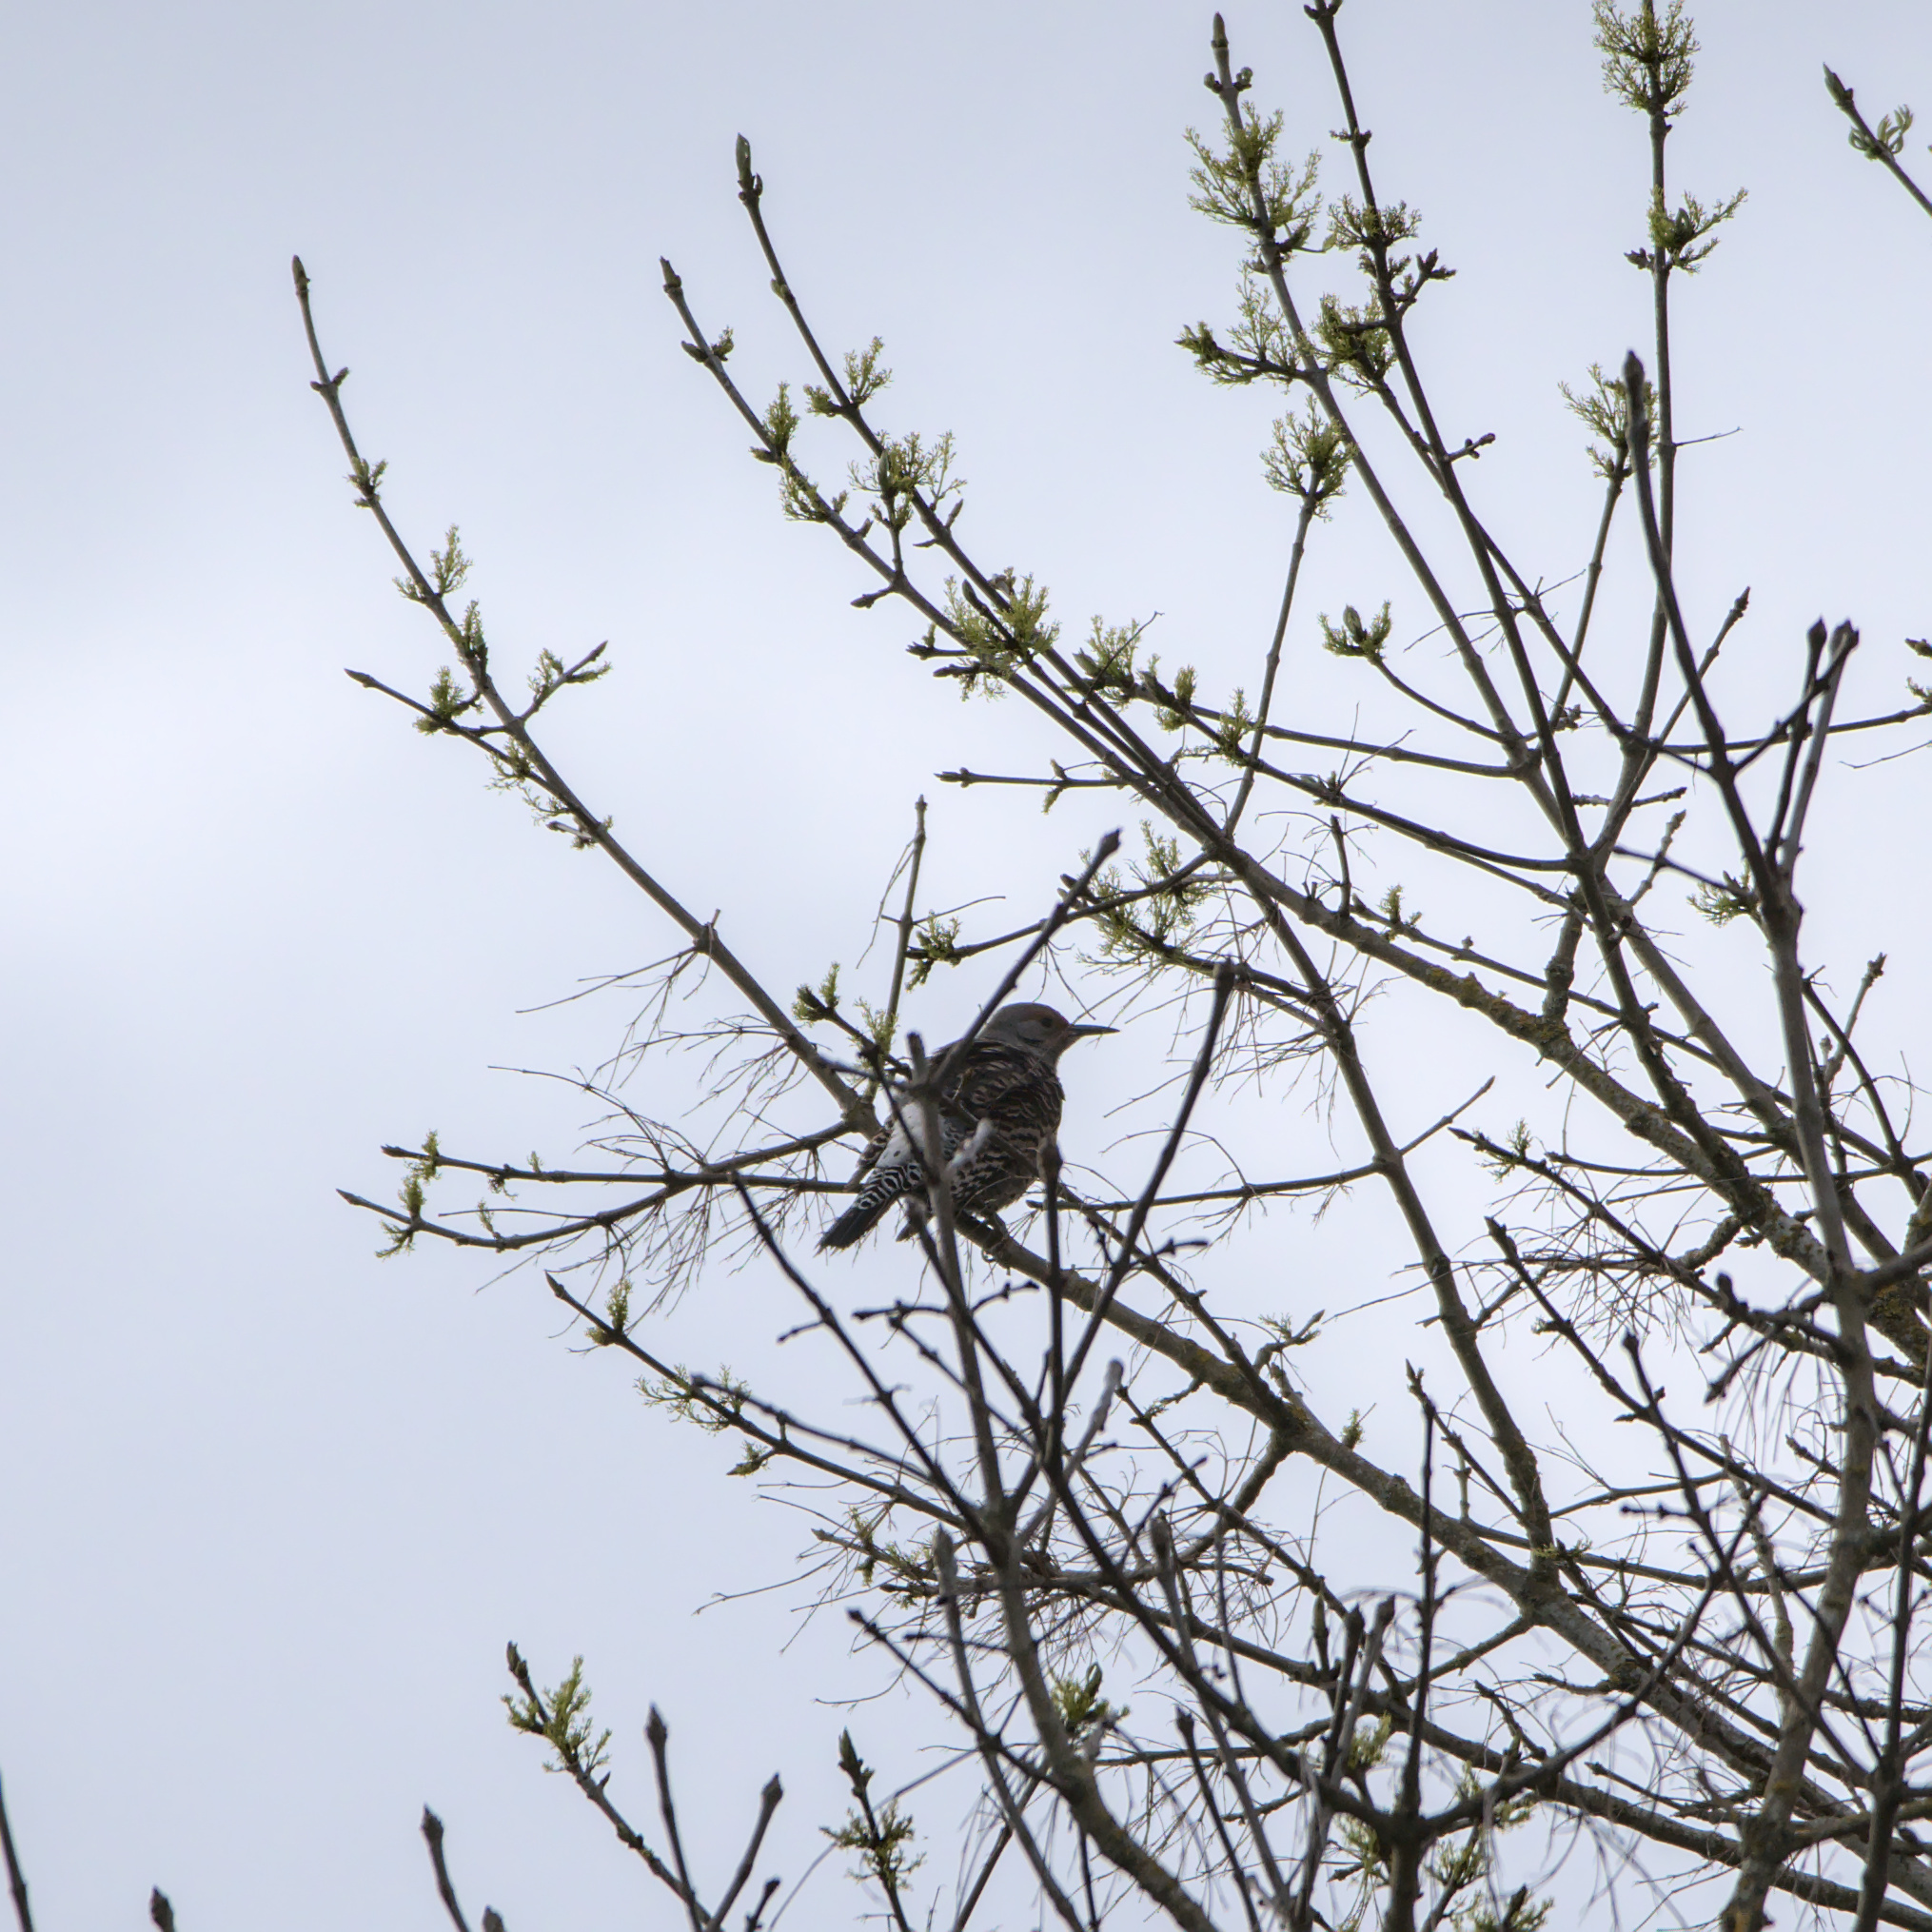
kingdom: Animalia
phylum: Chordata
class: Aves
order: Piciformes
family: Picidae
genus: Colaptes
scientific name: Colaptes auratus
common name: Northern flicker
